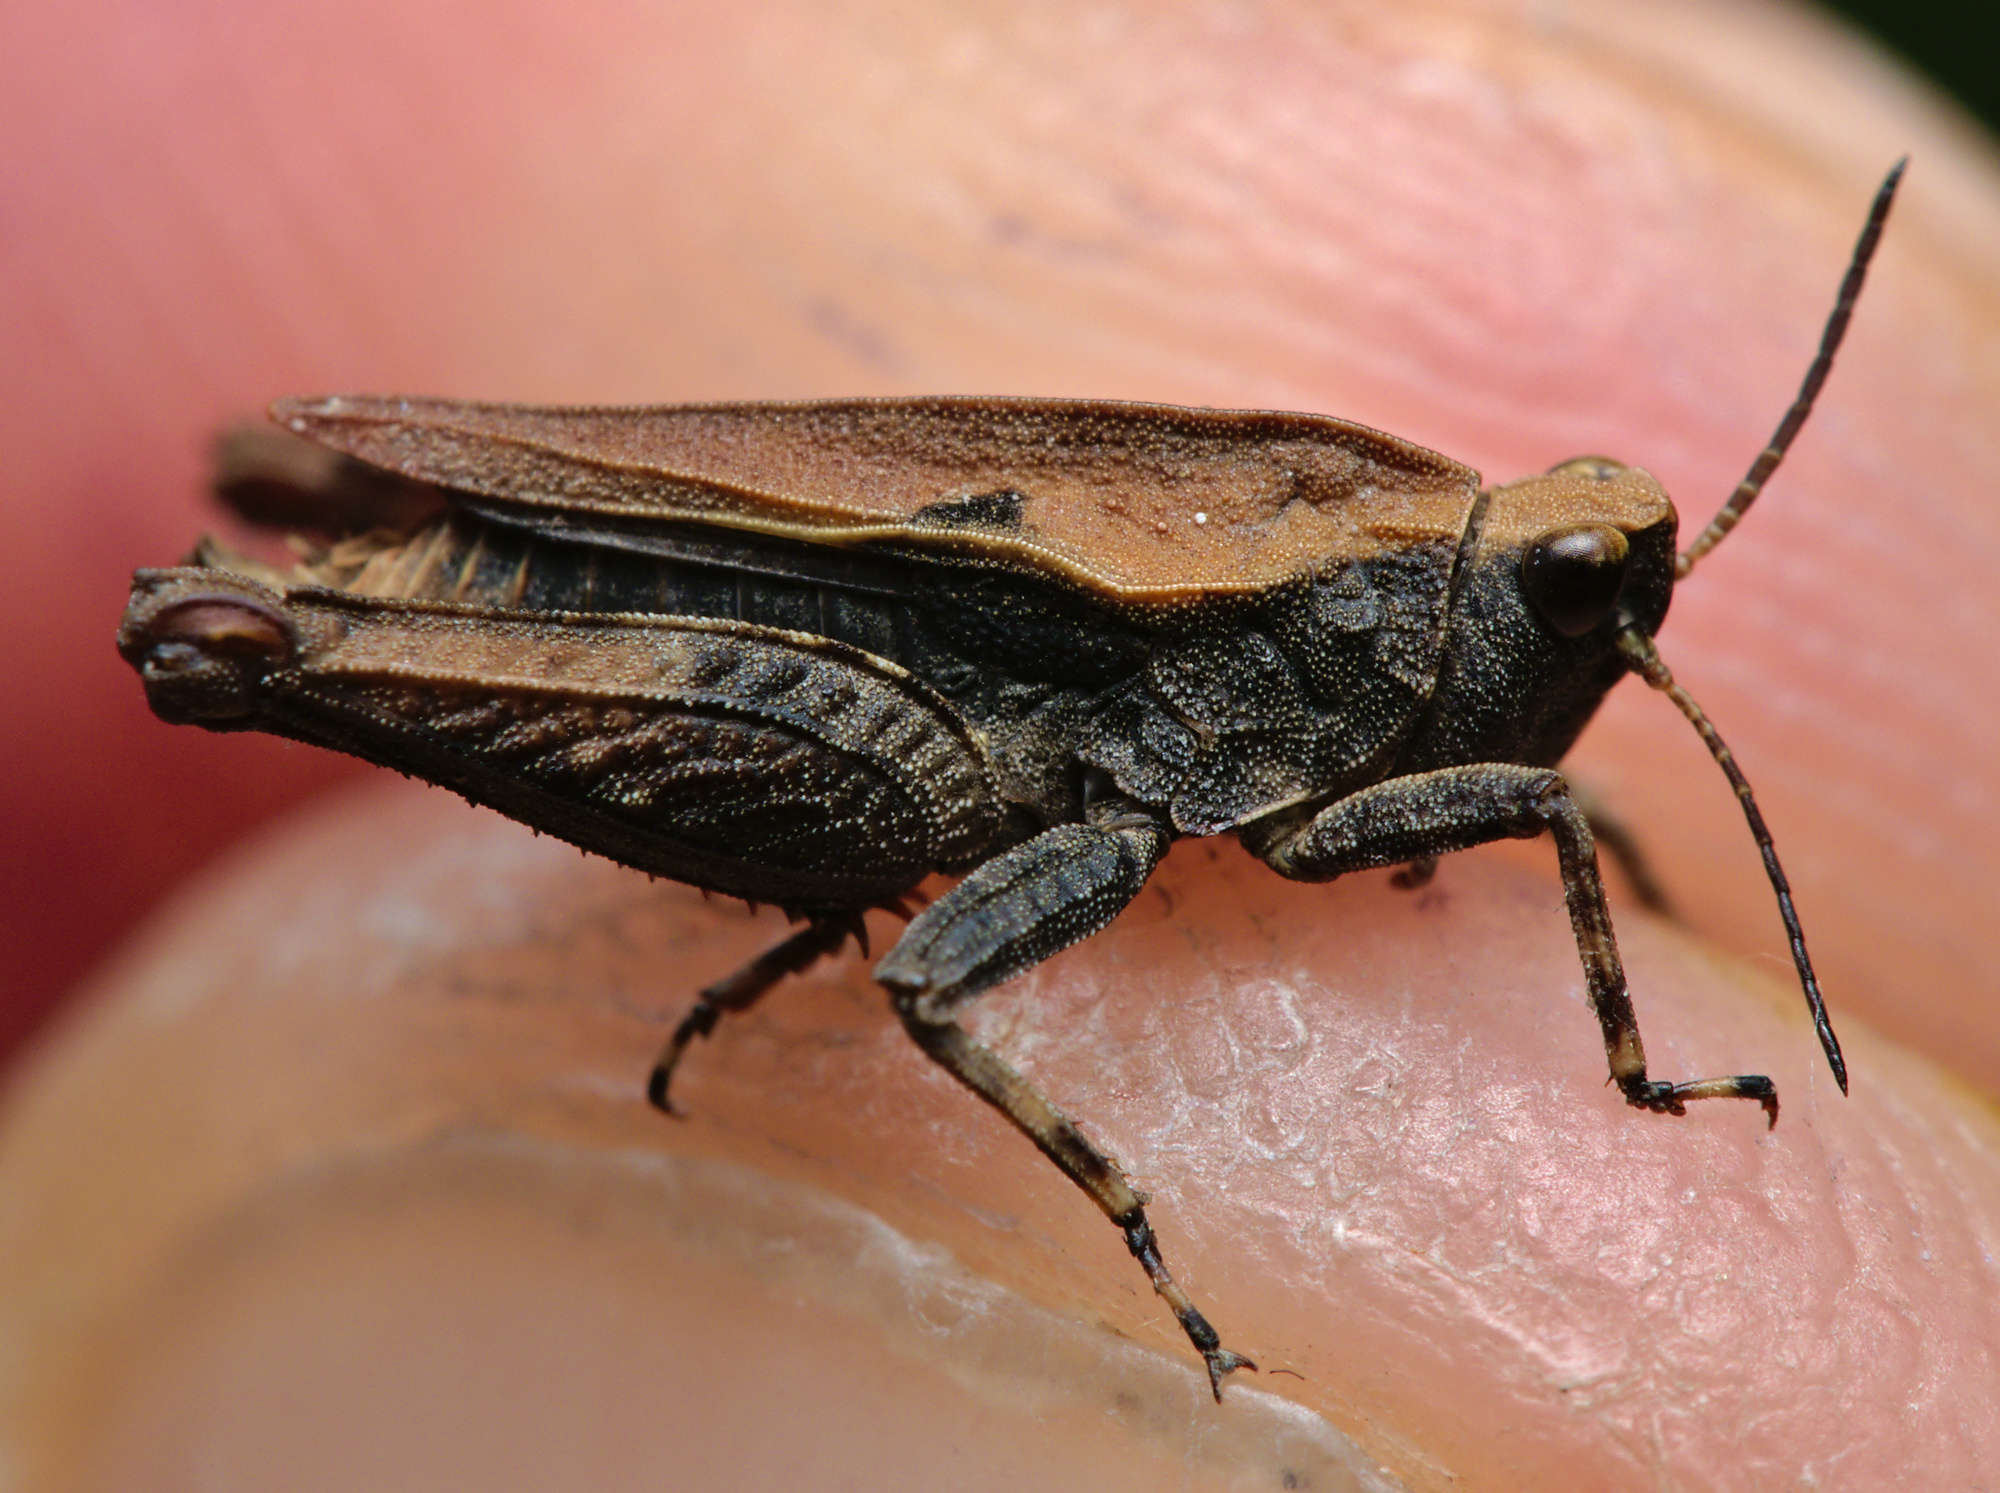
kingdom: Animalia
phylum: Arthropoda
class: Insecta
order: Orthoptera
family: Tetrigidae
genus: Tetrix
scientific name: Tetrix undulata
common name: Common groundhopper
